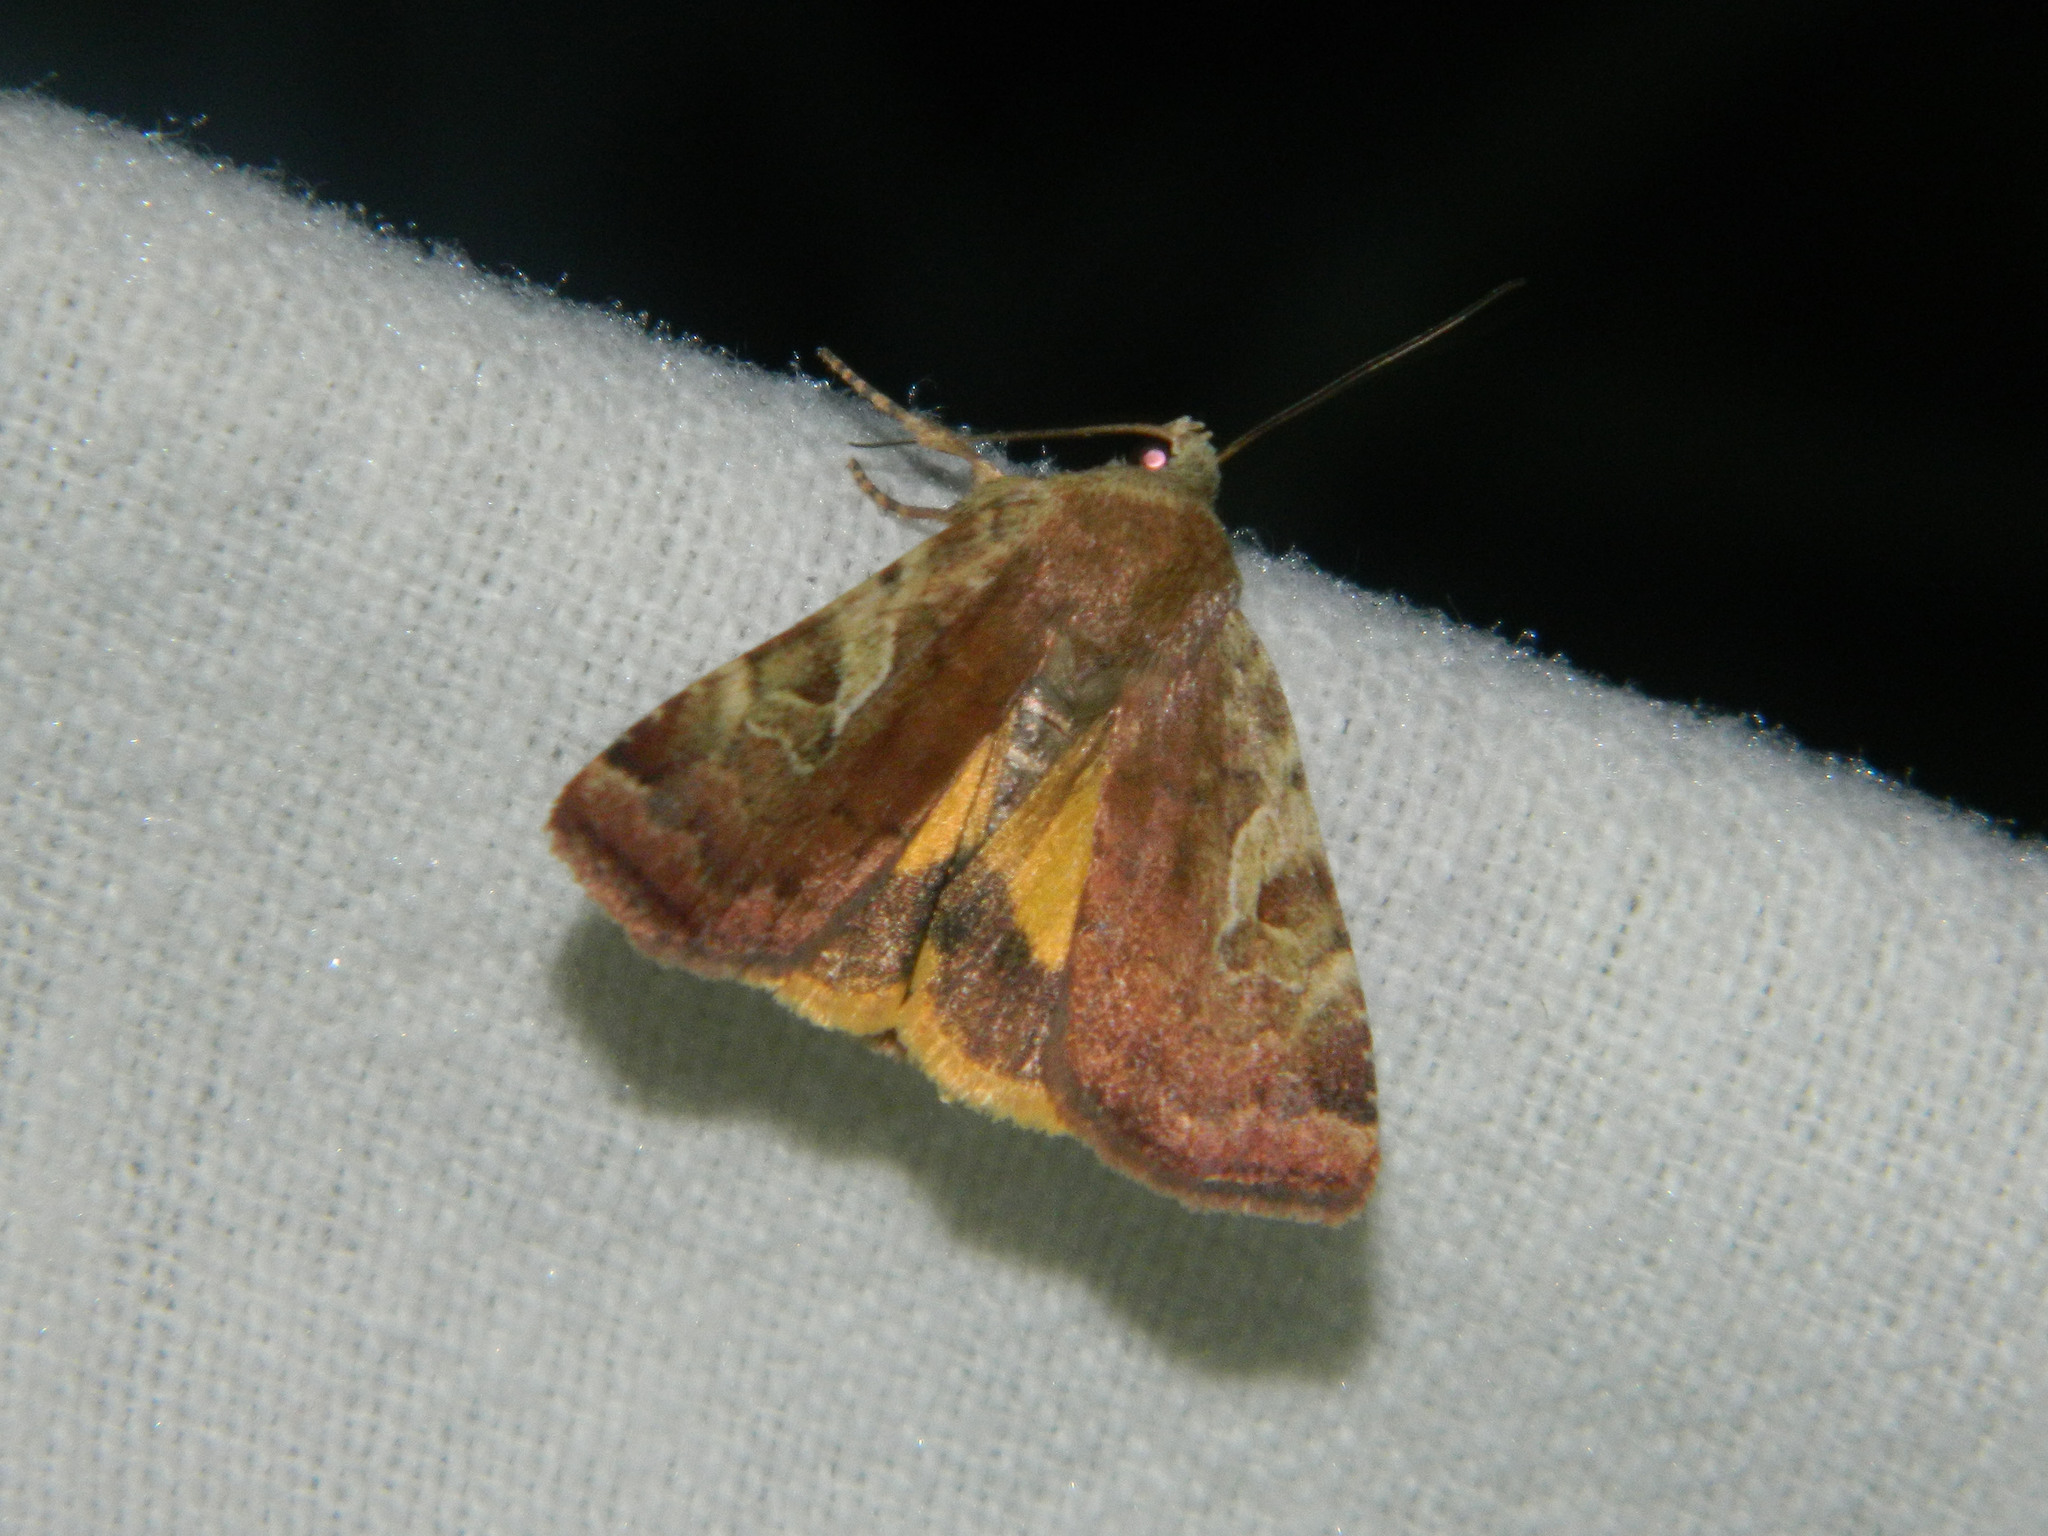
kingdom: Animalia
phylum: Arthropoda
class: Insecta
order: Lepidoptera
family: Noctuidae
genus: Cryptocala
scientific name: Cryptocala acadiensis
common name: Catocaline dart
